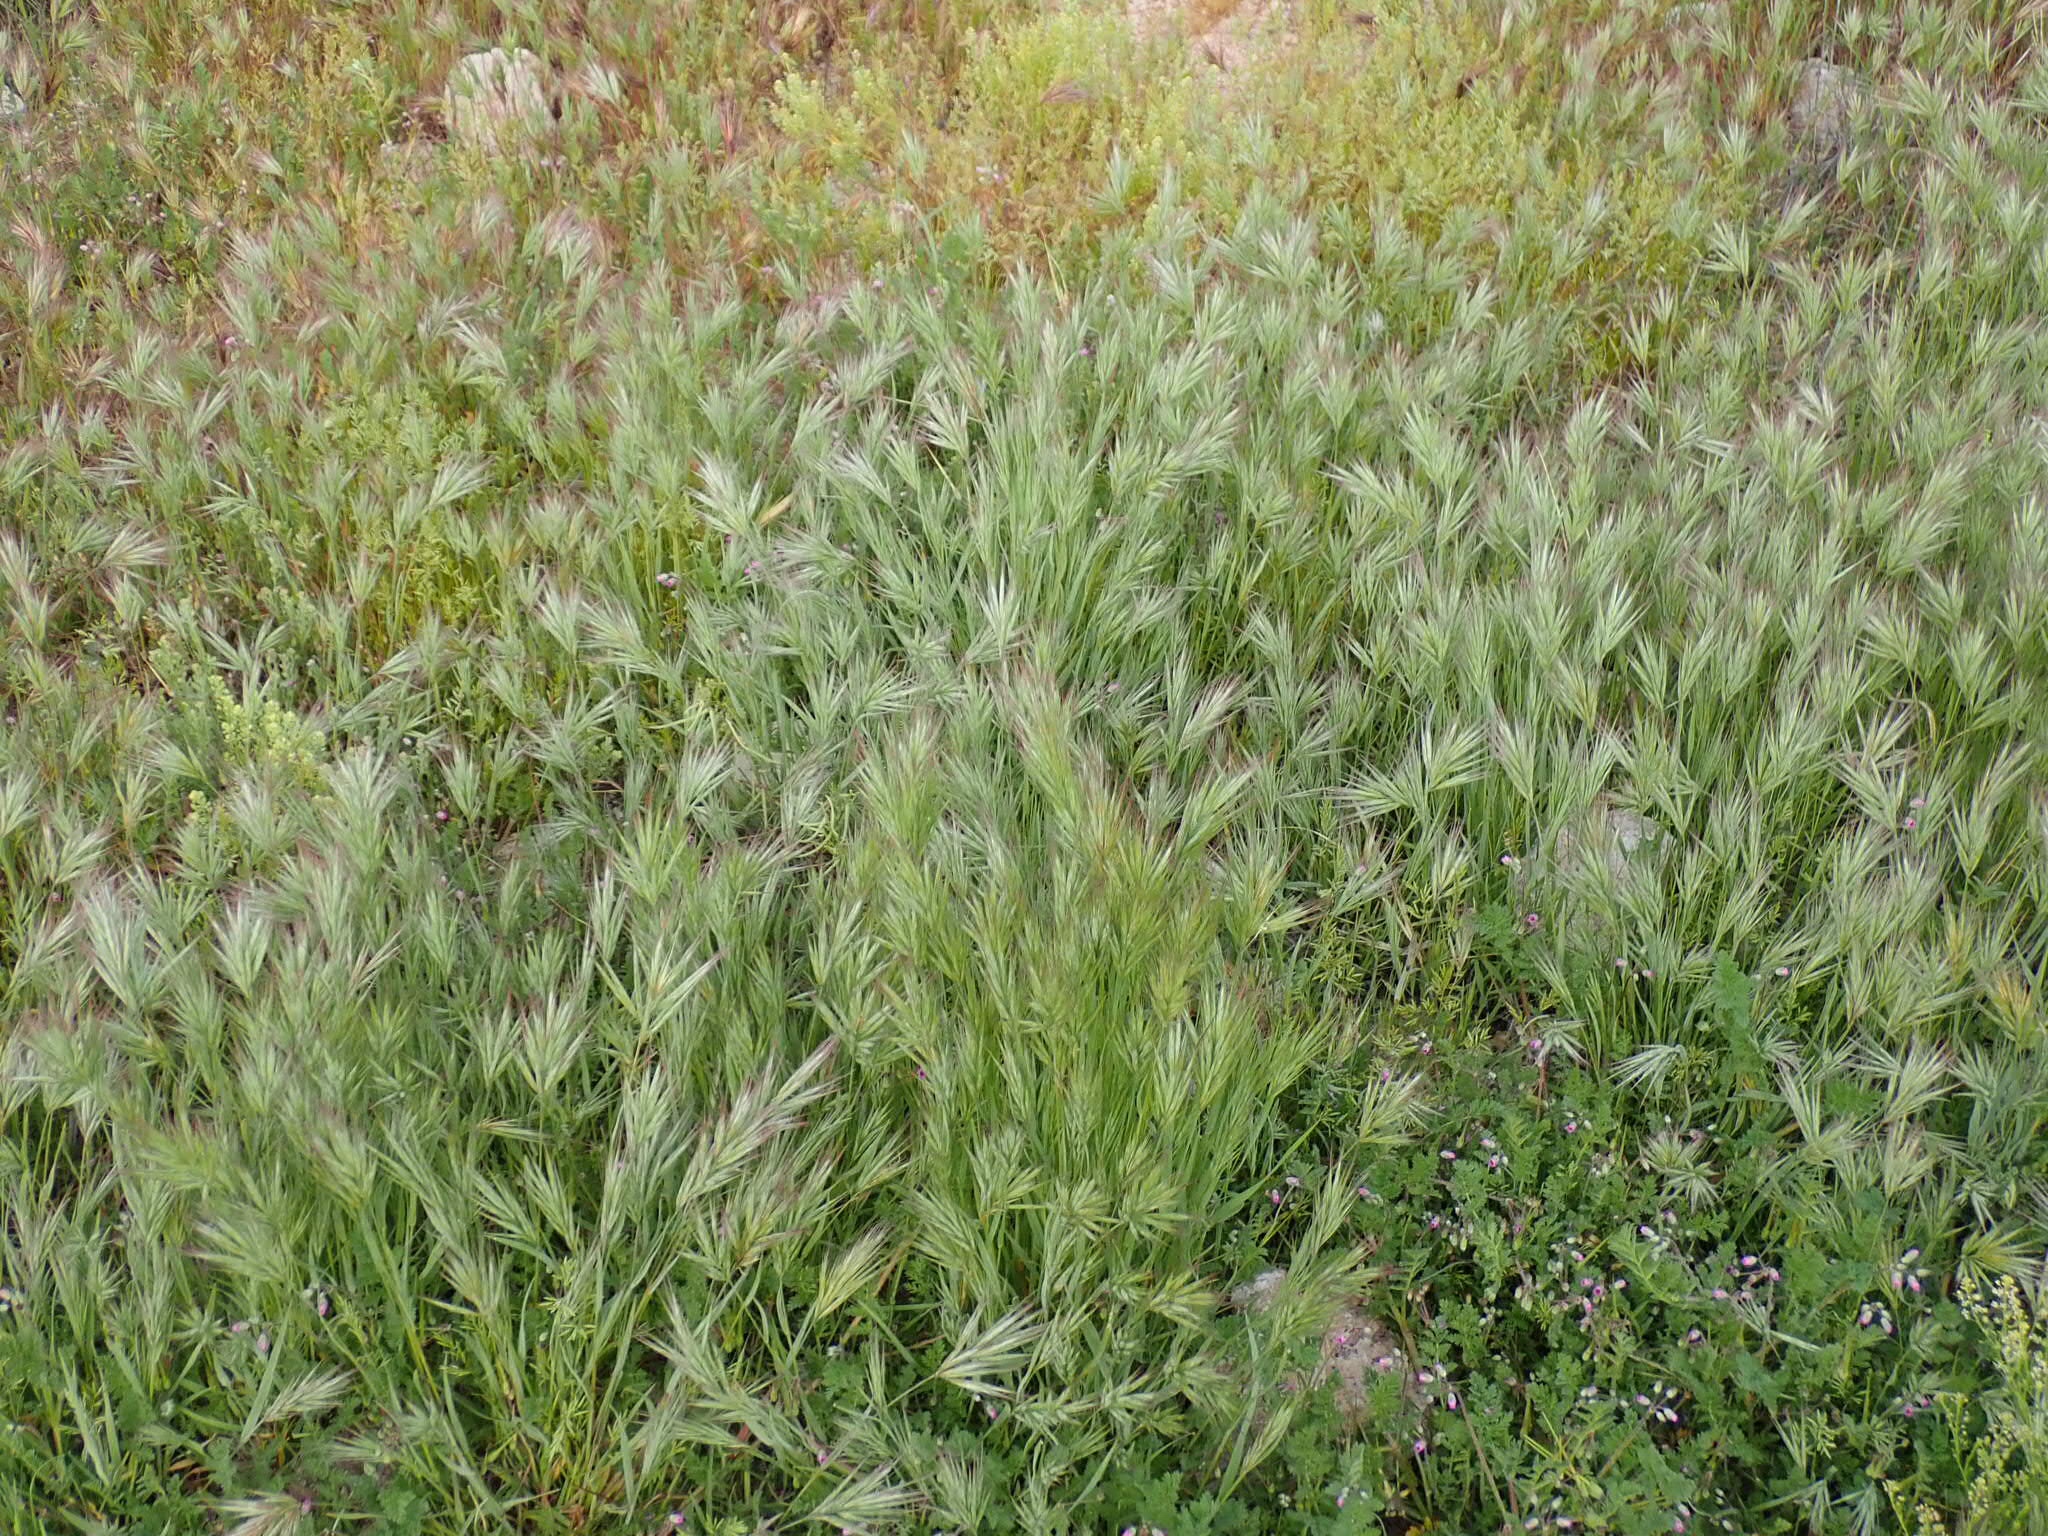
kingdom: Plantae
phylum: Tracheophyta
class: Liliopsida
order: Poales
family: Poaceae
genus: Bromus
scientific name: Bromus rubens
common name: Red brome
